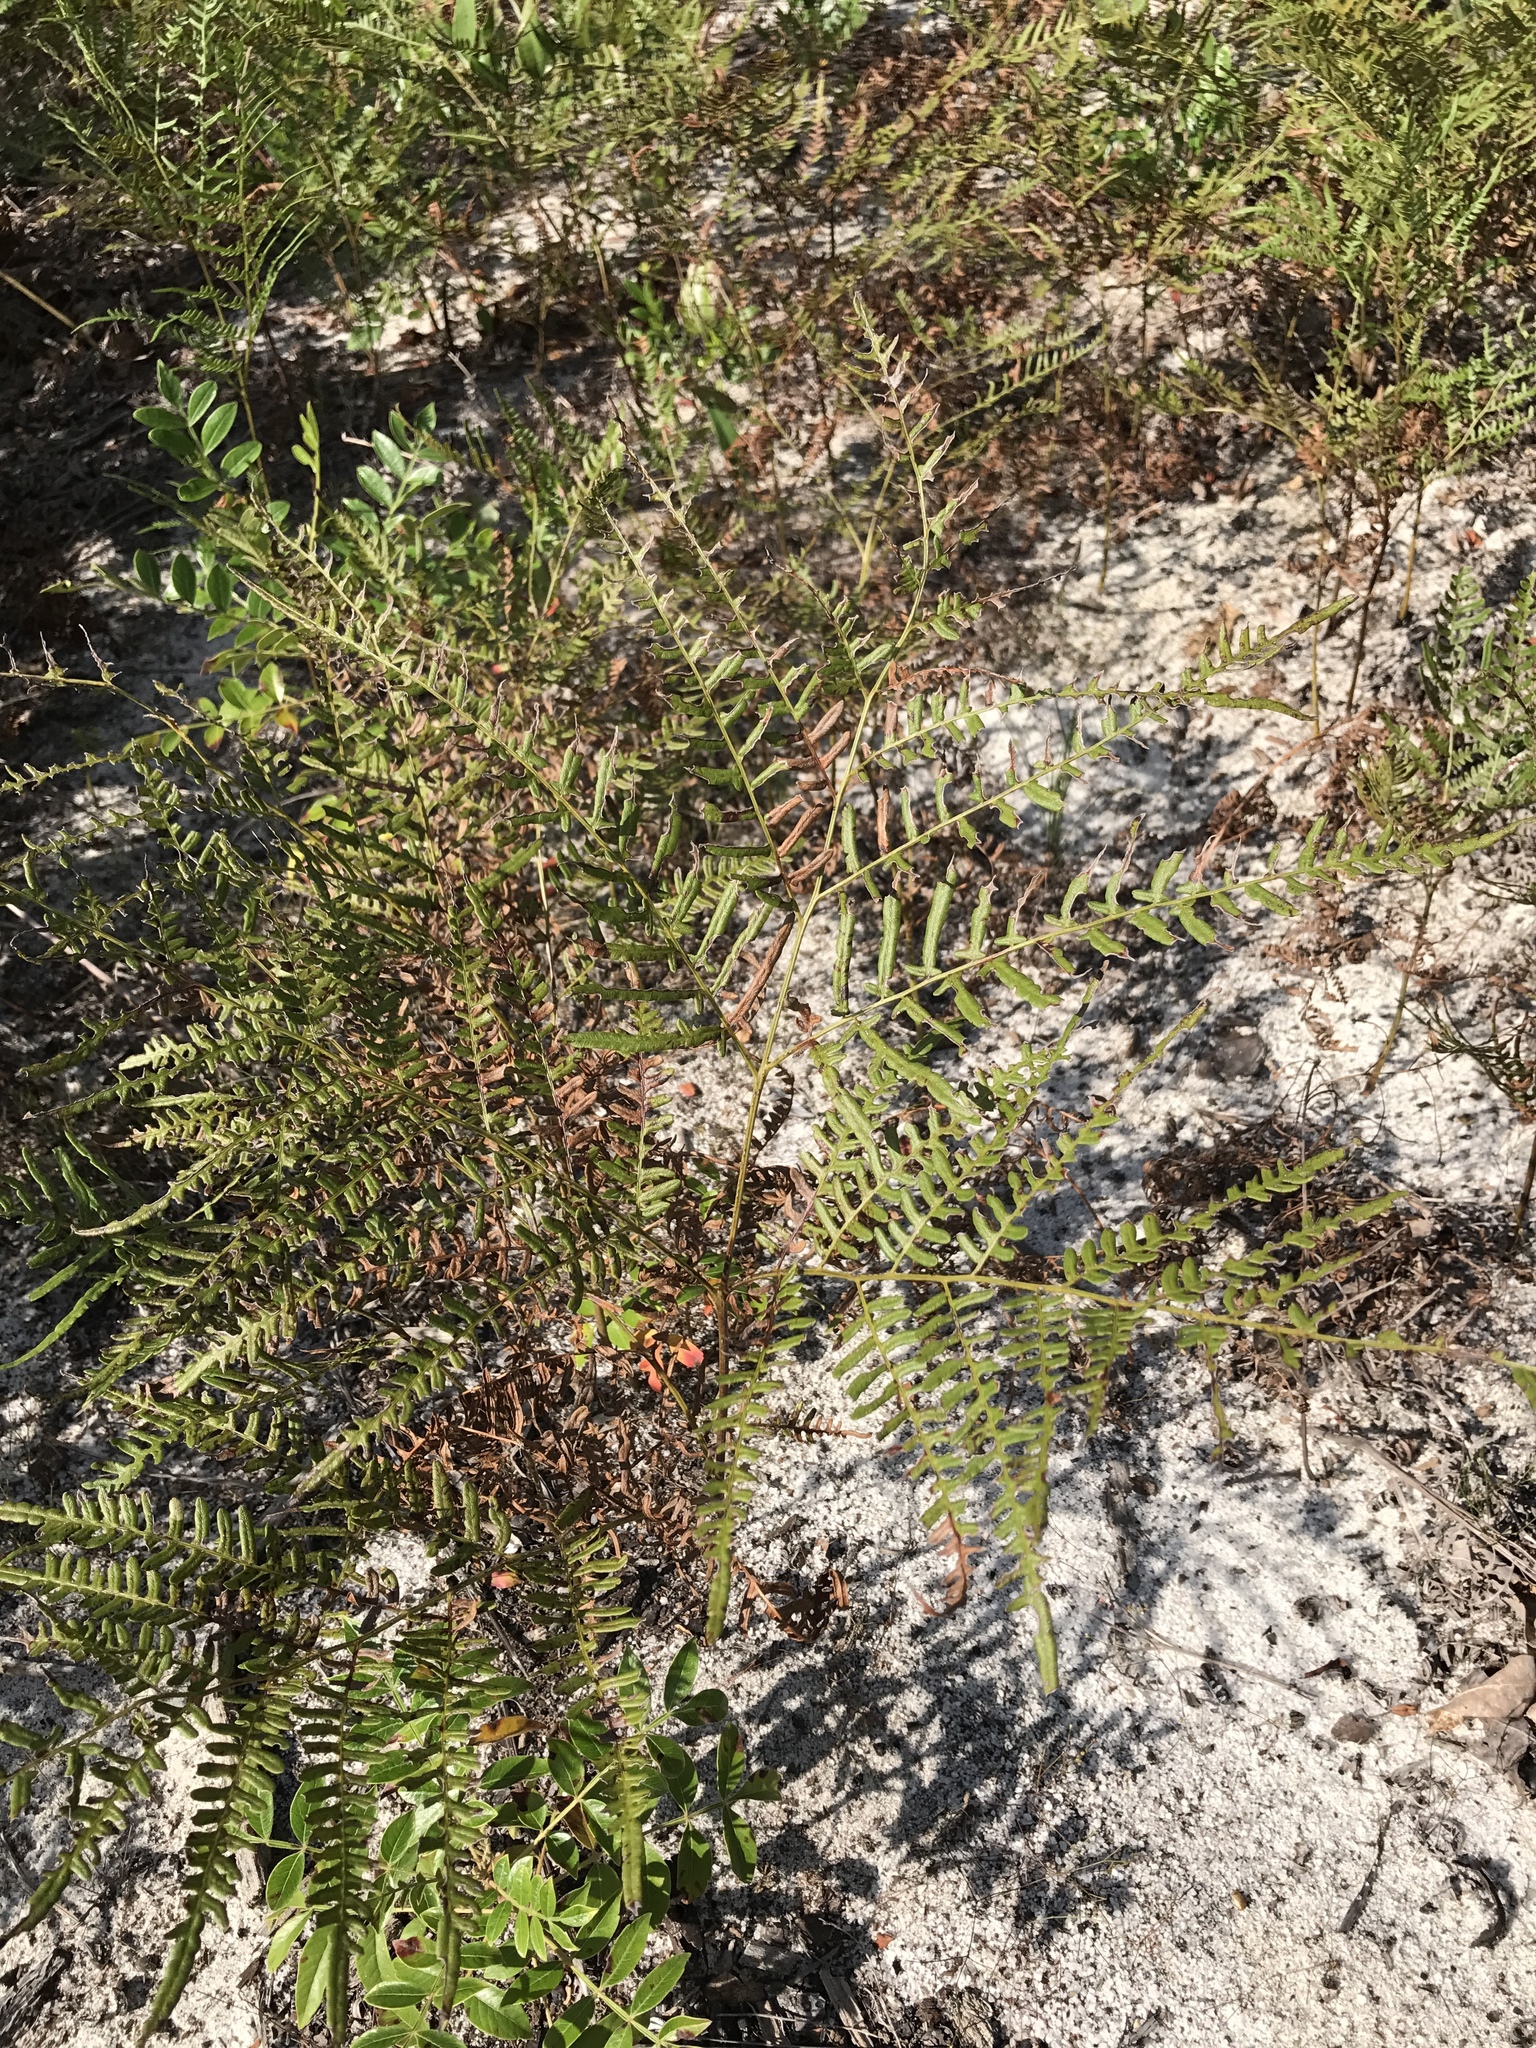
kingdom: Plantae
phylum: Tracheophyta
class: Polypodiopsida
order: Polypodiales
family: Dennstaedtiaceae
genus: Pteridium
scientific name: Pteridium
